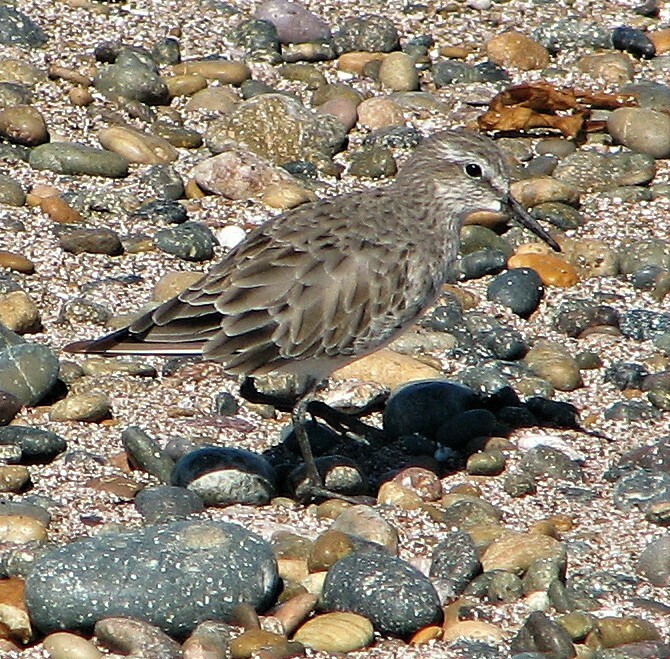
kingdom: Animalia
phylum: Chordata
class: Aves
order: Charadriiformes
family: Scolopacidae
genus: Calidris
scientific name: Calidris fuscicollis
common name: White-rumped sandpiper
